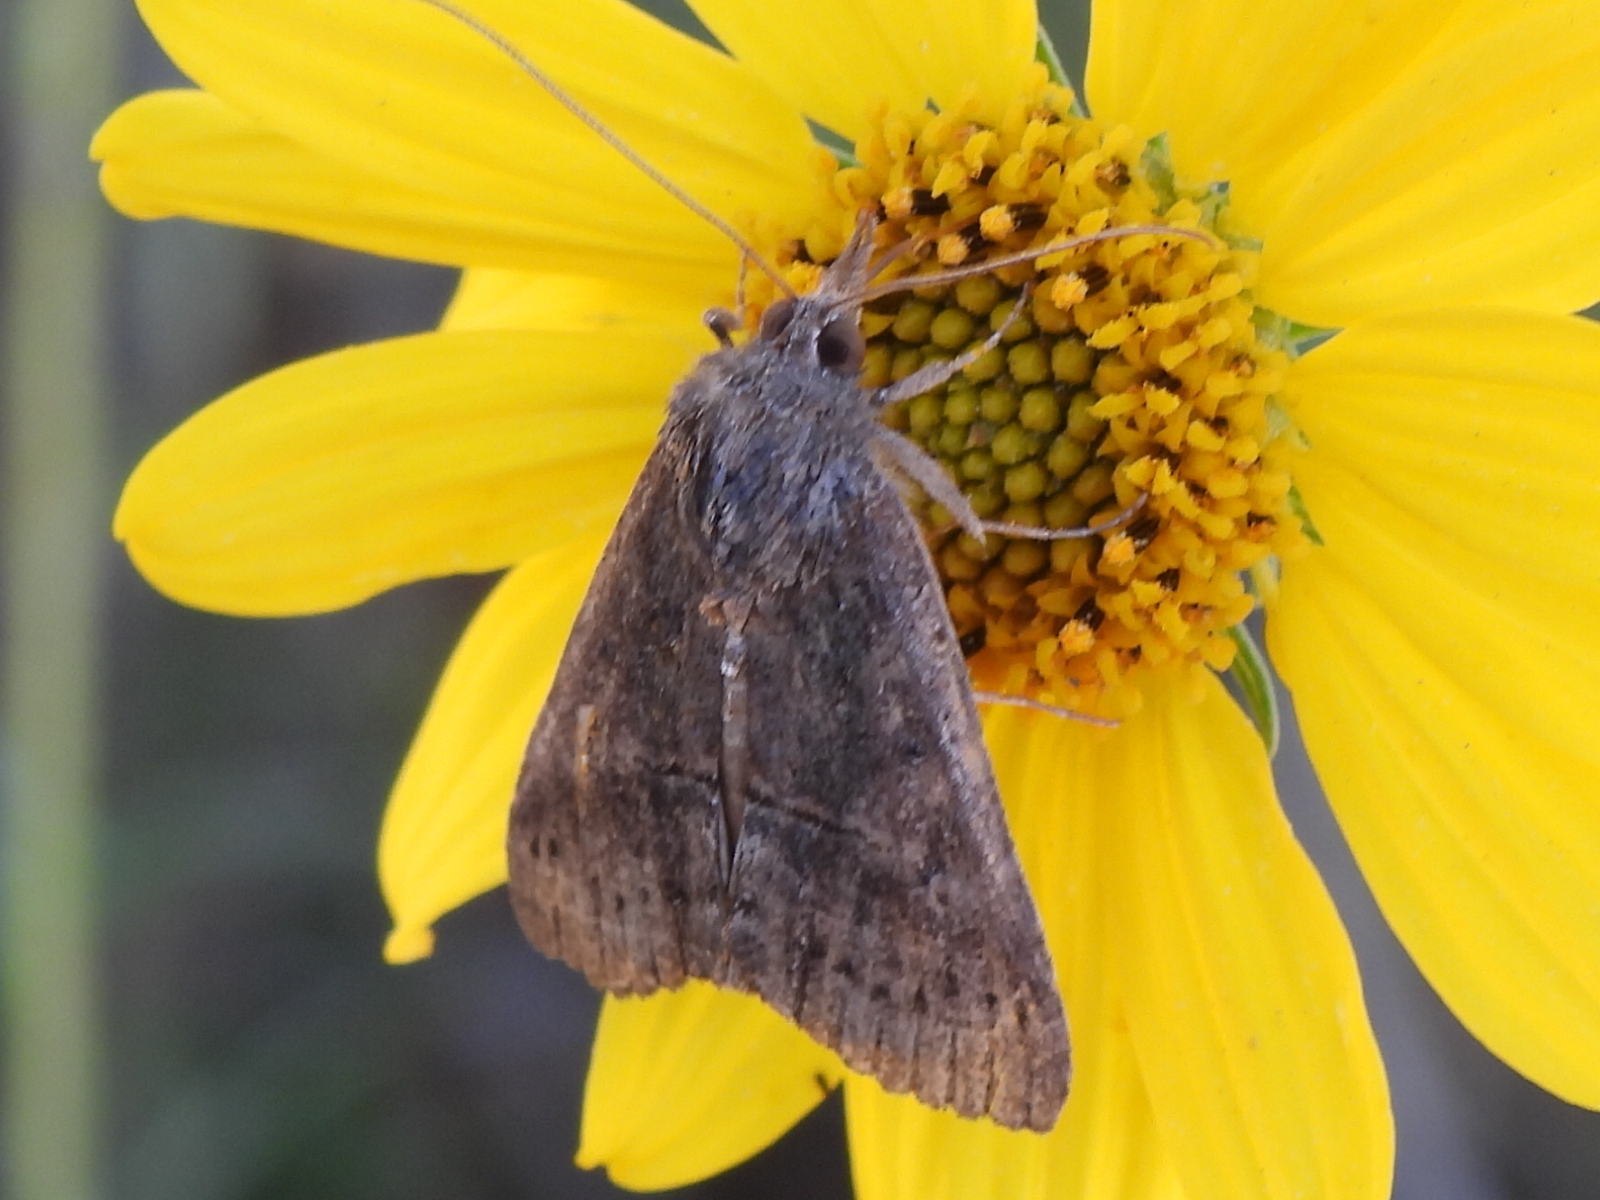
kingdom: Animalia
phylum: Arthropoda
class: Insecta
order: Lepidoptera
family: Erebidae
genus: Hypena
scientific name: Hypena scabra
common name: Green cloverworm
